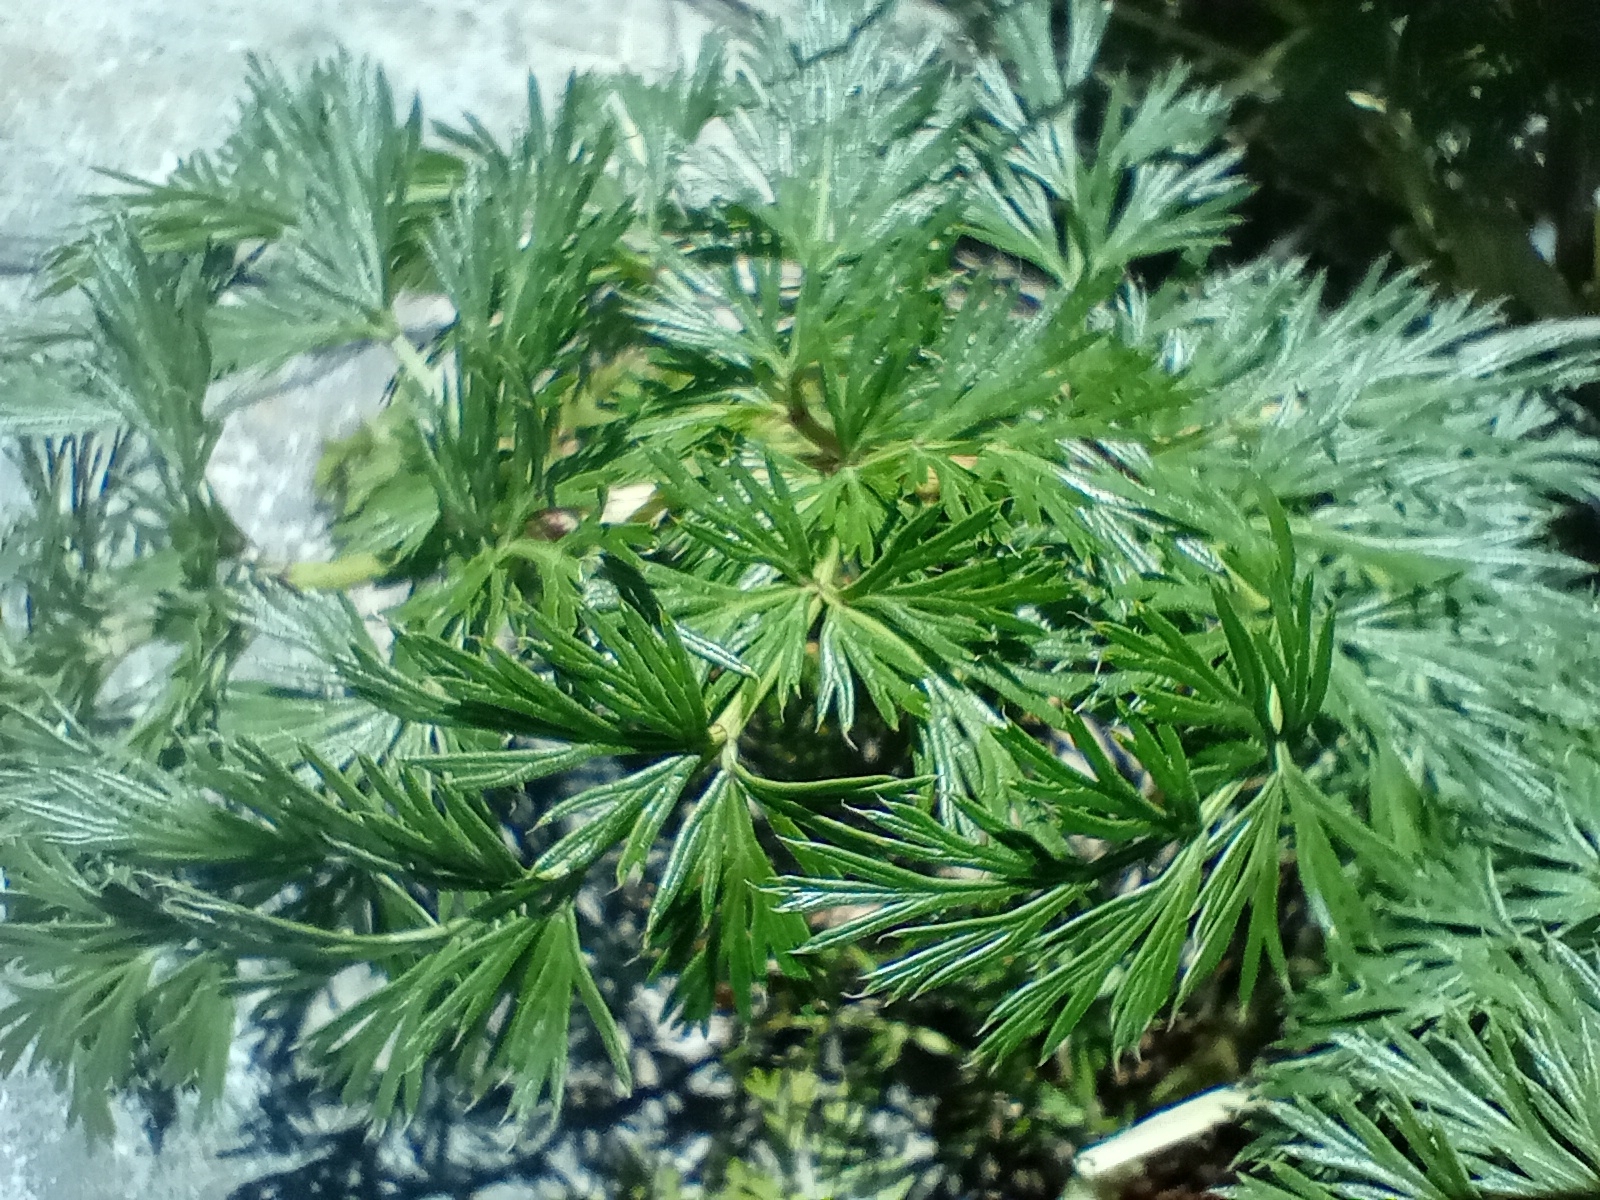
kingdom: Plantae
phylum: Tracheophyta
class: Magnoliopsida
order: Apiales
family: Apiaceae
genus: Anisotome
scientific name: Anisotome haastii
